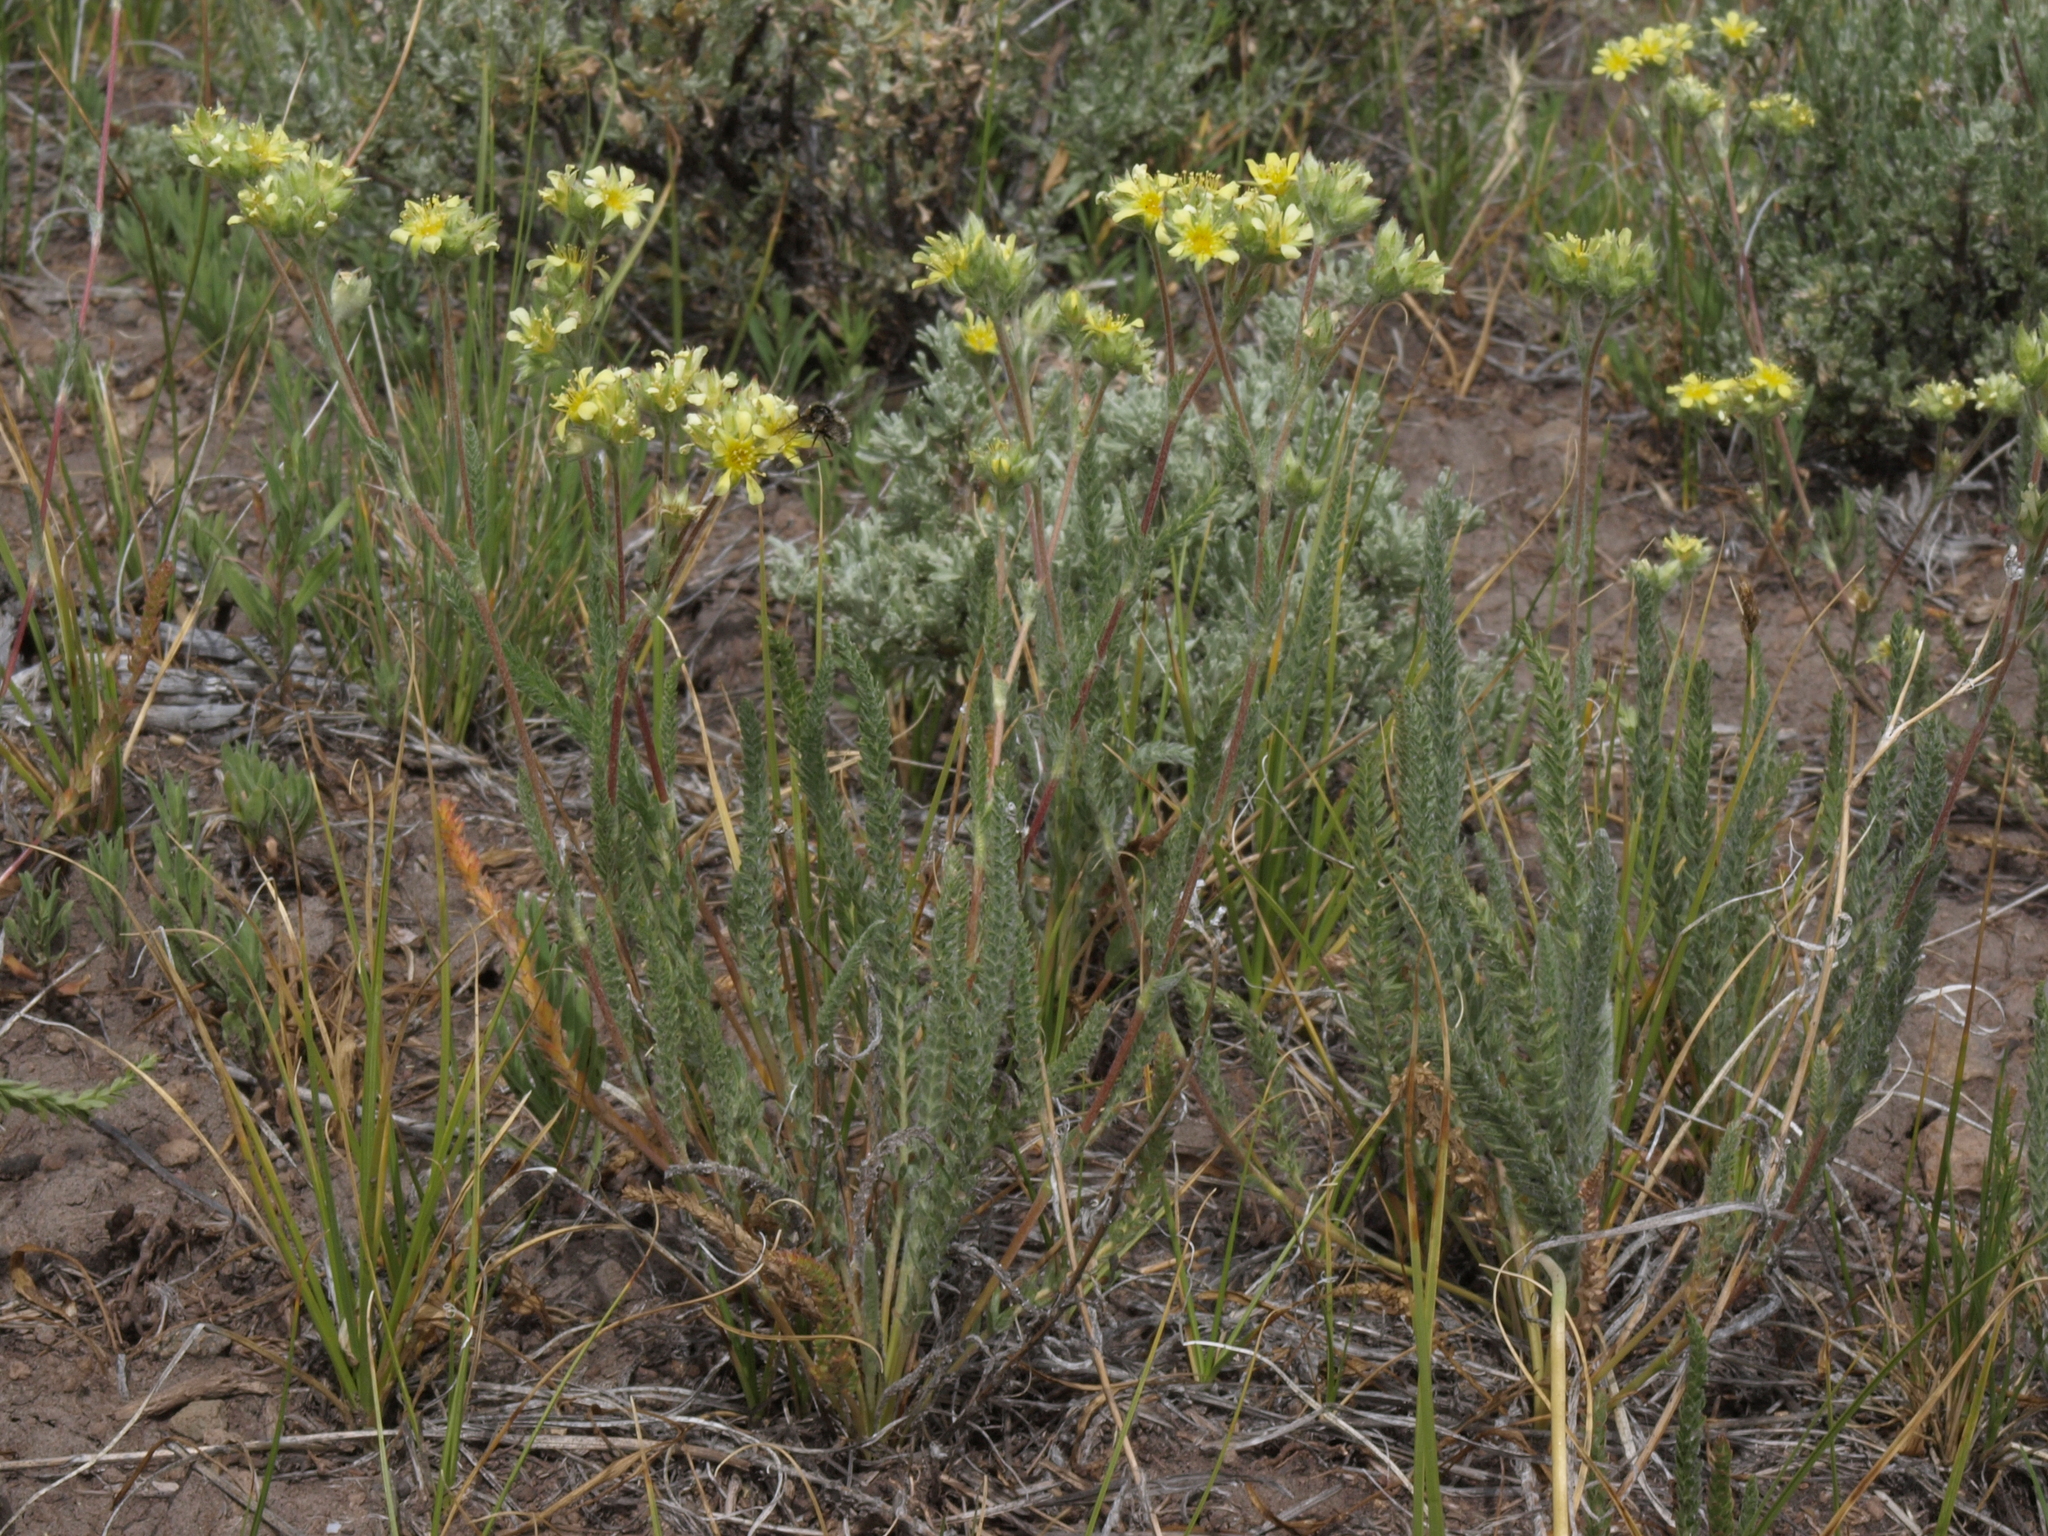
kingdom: Plantae
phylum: Tracheophyta
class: Magnoliopsida
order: Rosales
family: Rosaceae
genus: Potentilla
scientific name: Potentilla aperta
